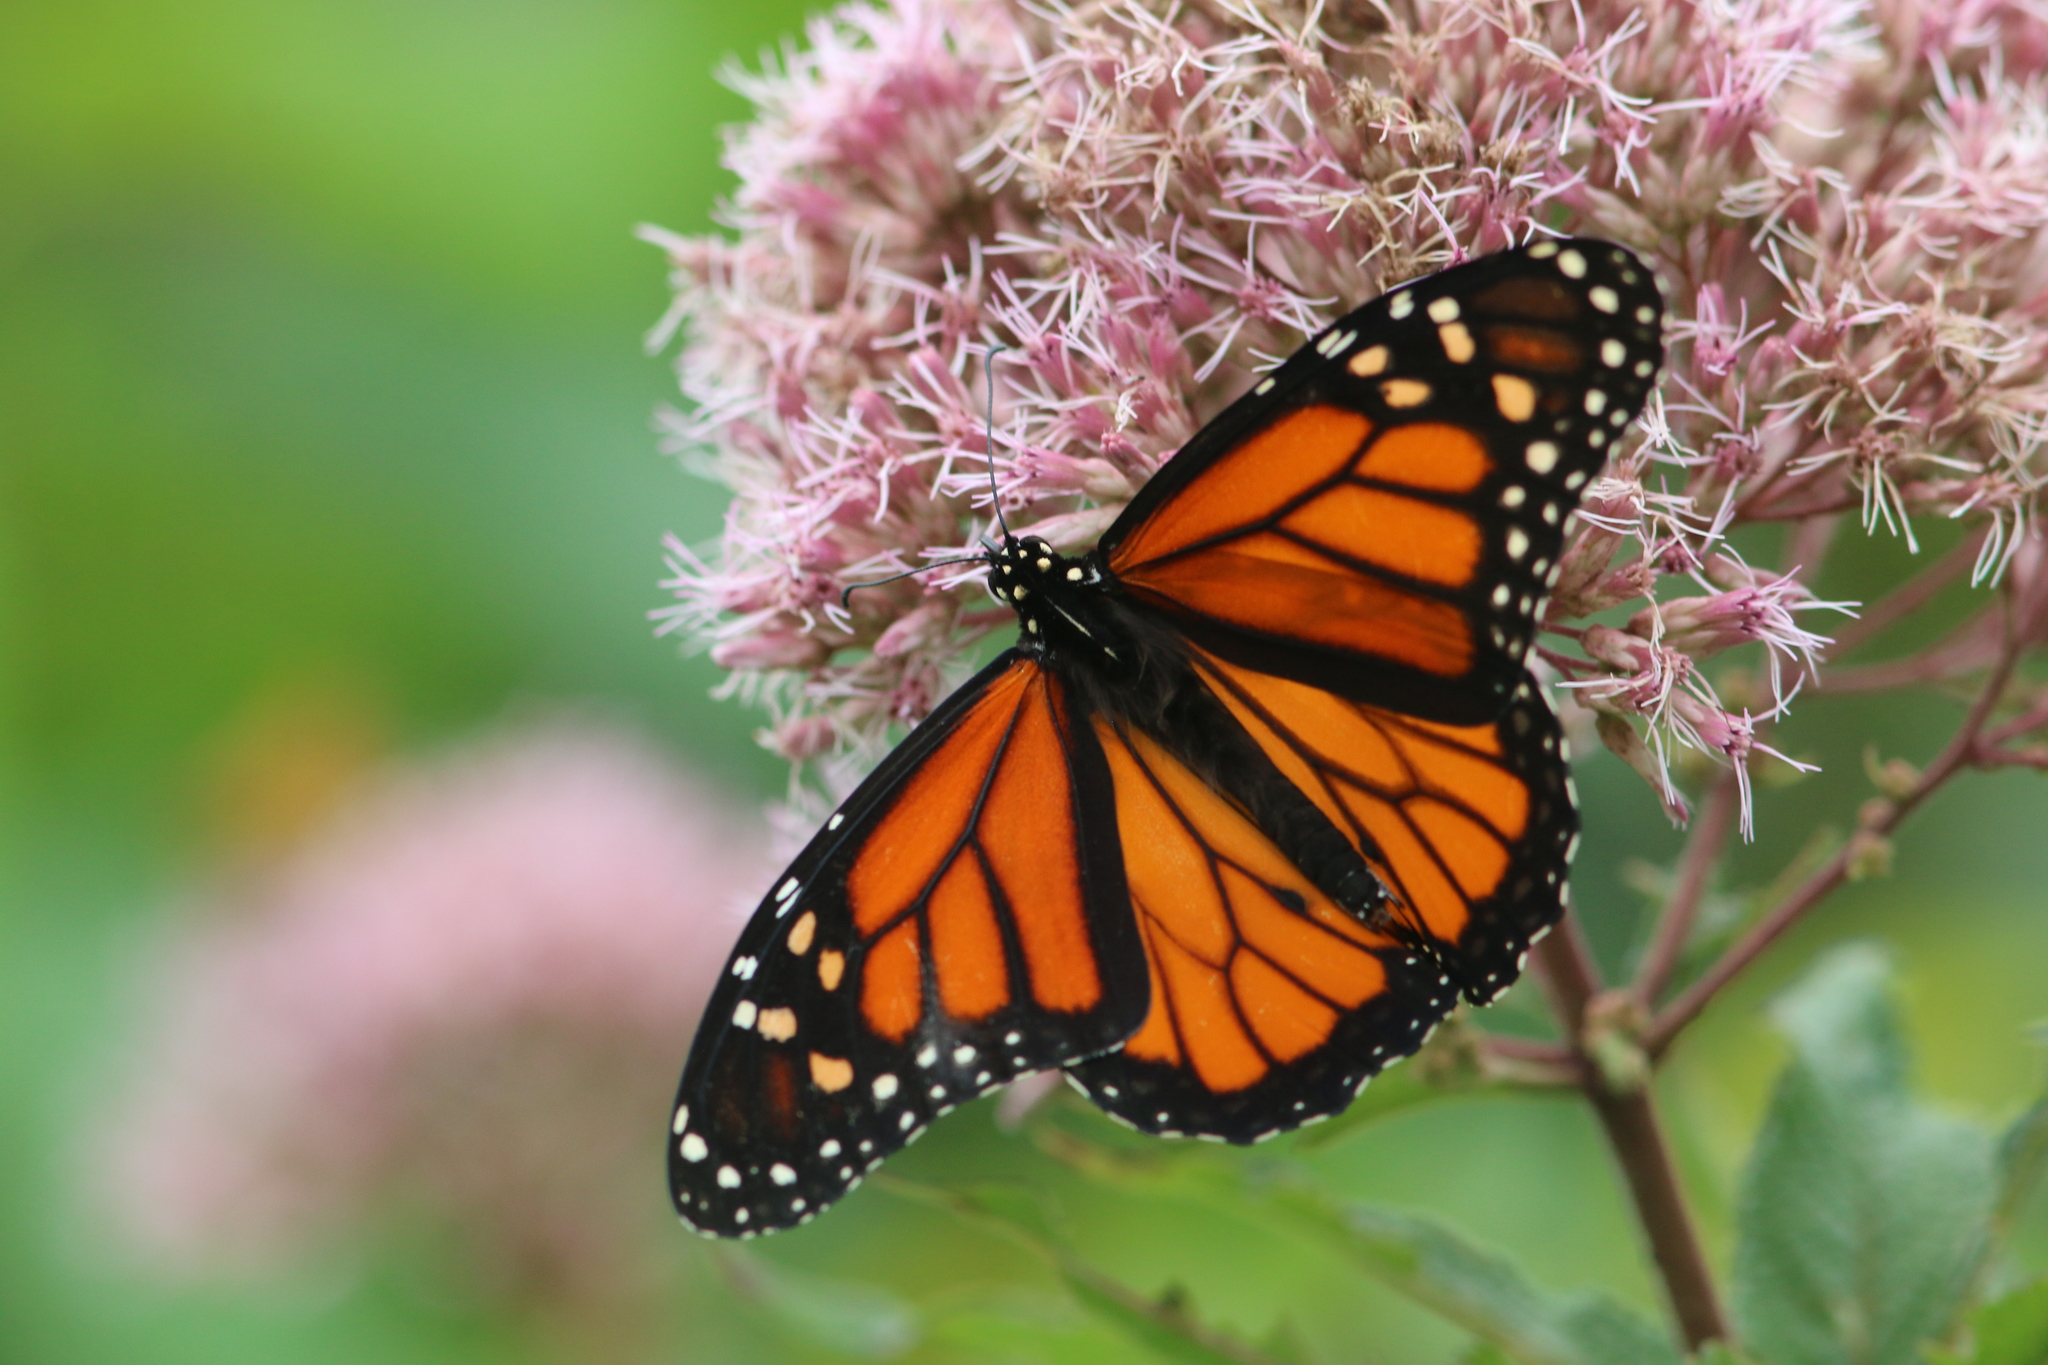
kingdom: Animalia
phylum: Arthropoda
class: Insecta
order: Lepidoptera
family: Nymphalidae
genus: Danaus
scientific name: Danaus plexippus
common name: Monarch
